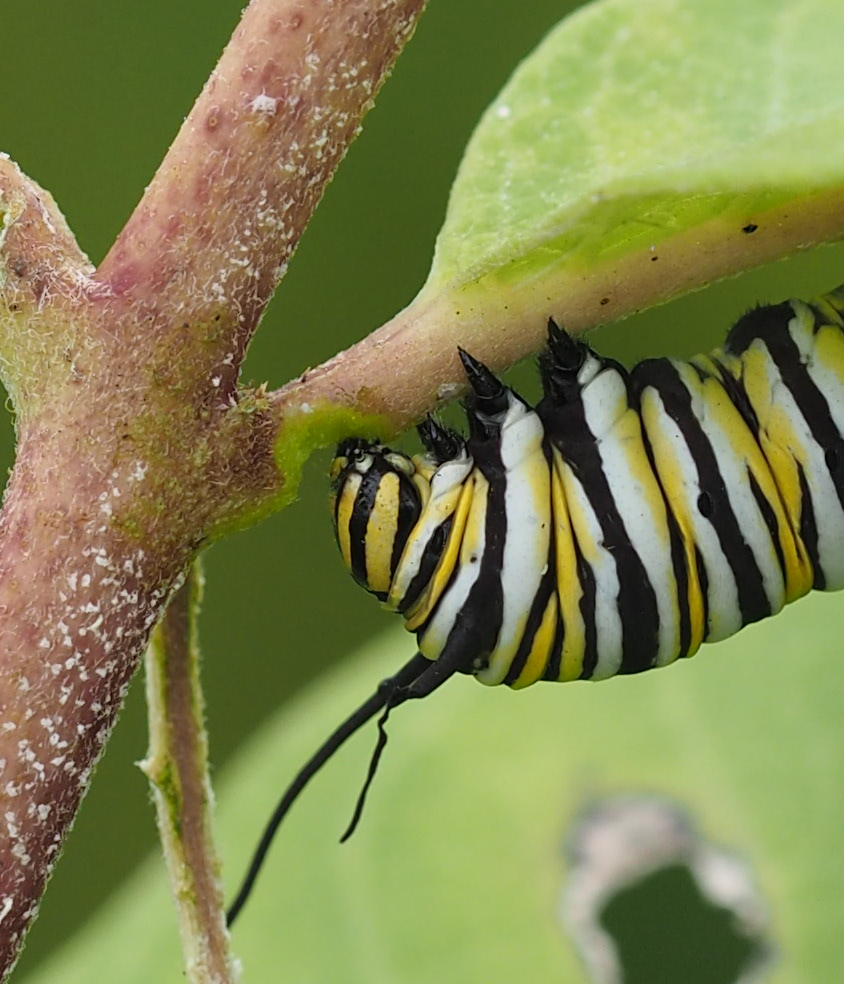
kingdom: Animalia
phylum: Arthropoda
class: Insecta
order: Lepidoptera
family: Nymphalidae
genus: Danaus
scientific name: Danaus plexippus
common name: Monarch
